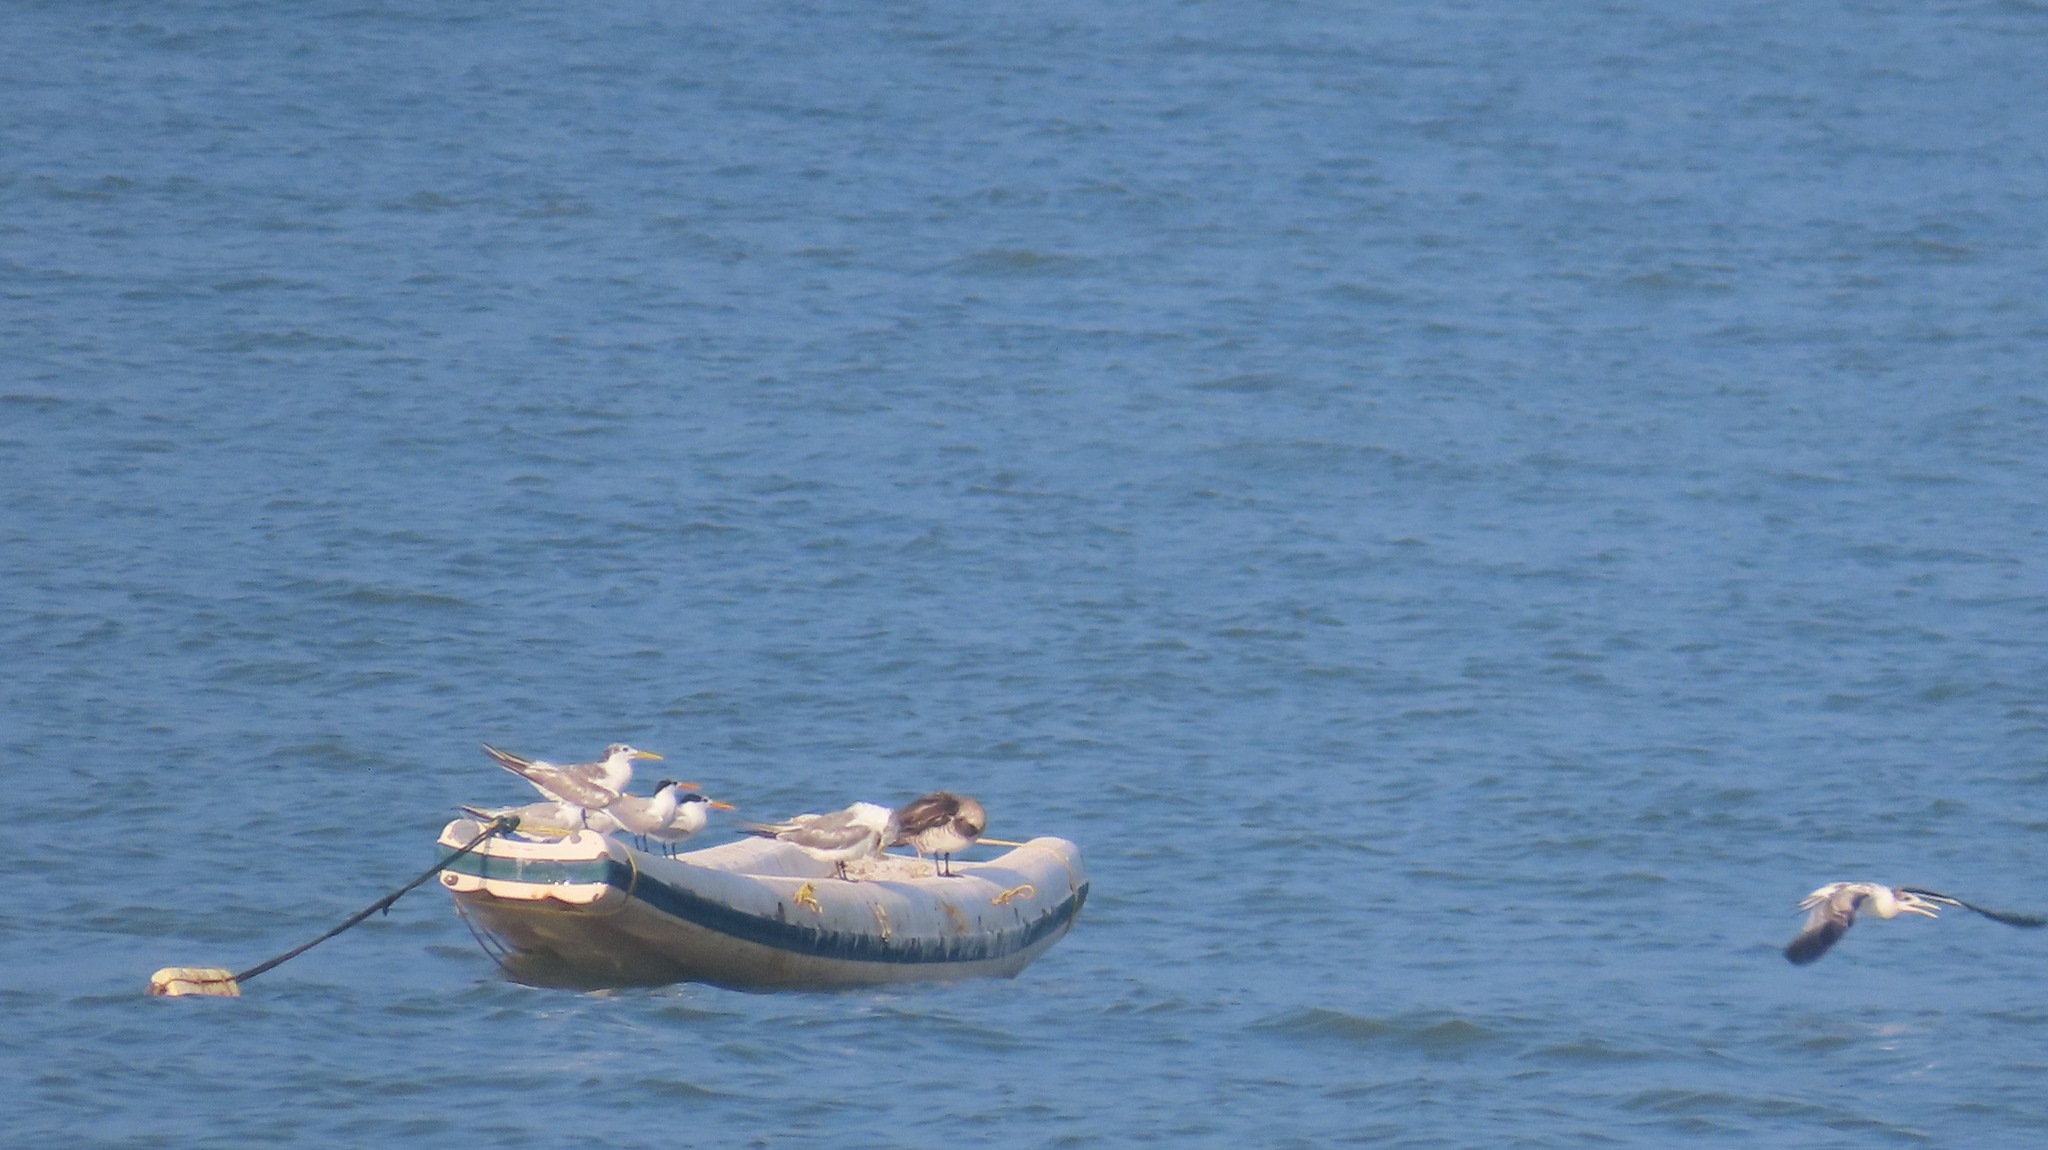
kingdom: Animalia
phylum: Chordata
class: Aves
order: Charadriiformes
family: Stercorariidae
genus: Stercorarius
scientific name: Stercorarius parasiticus
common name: Parasitic jaeger
